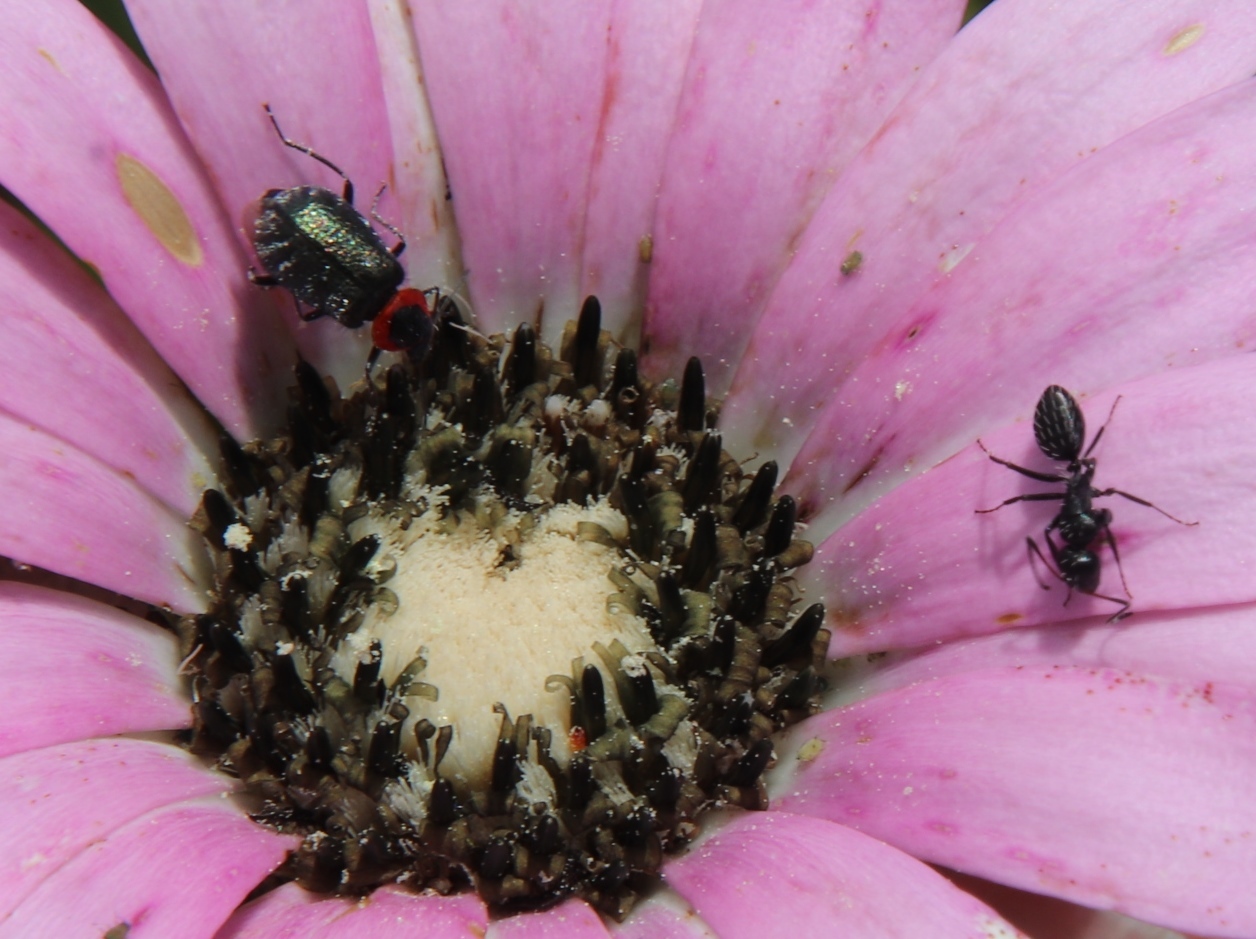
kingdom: Animalia
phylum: Arthropoda
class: Insecta
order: Hymenoptera
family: Formicidae
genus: Camponotus
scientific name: Camponotus niveosetosus
